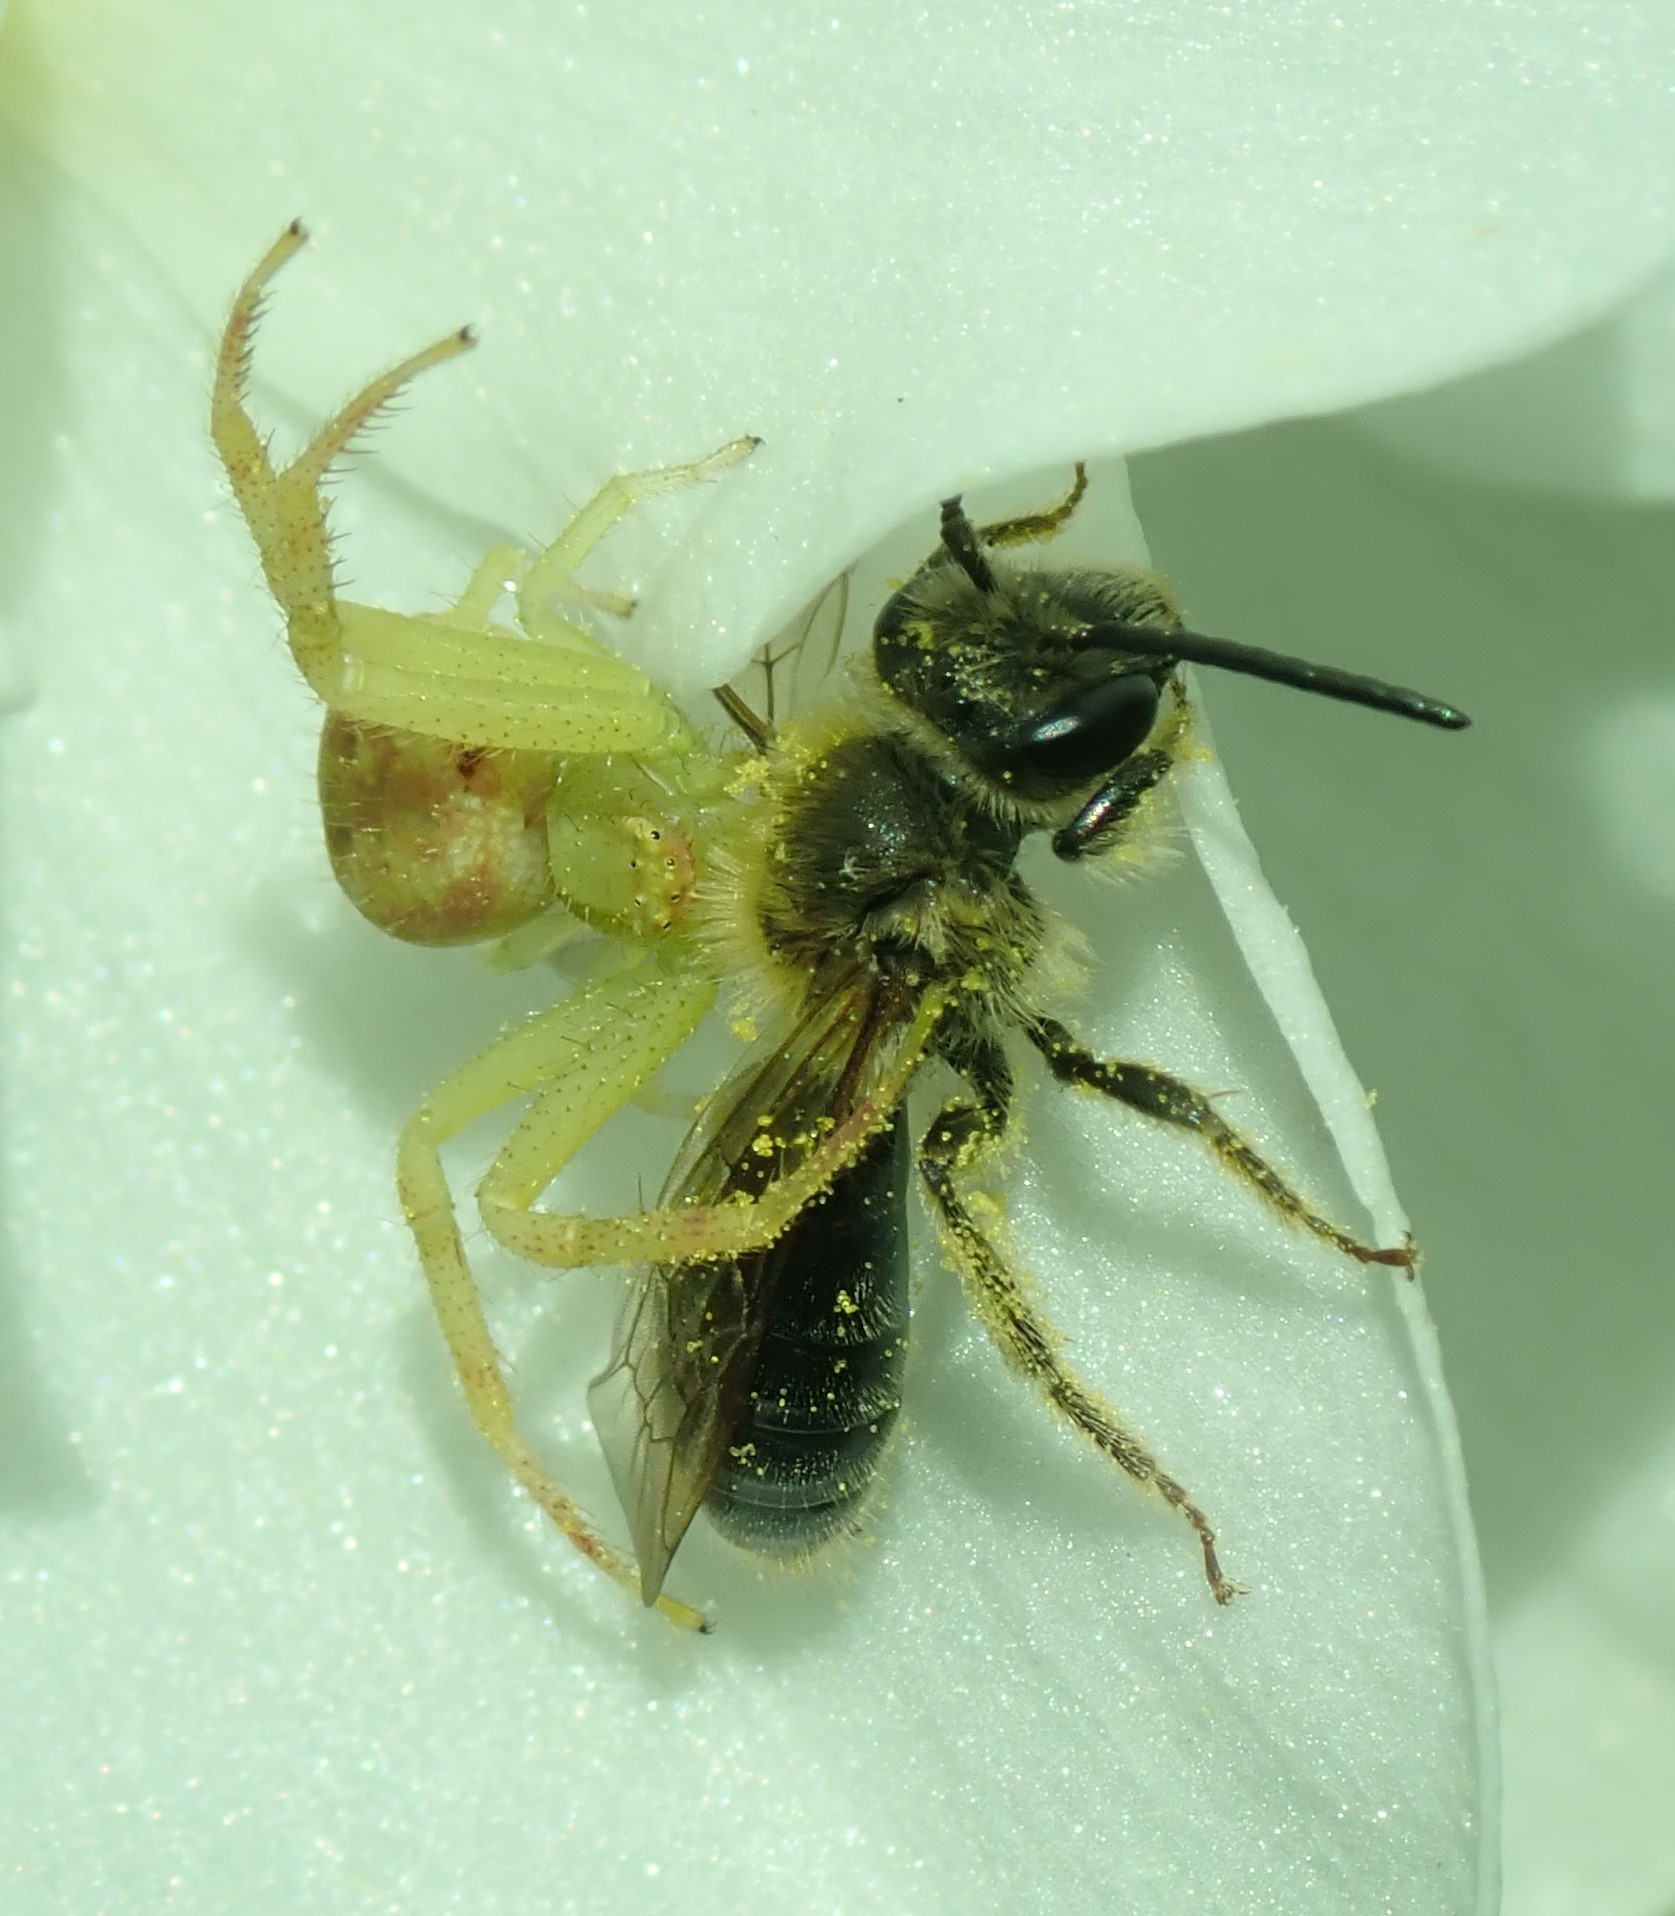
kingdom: Animalia
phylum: Arthropoda
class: Arachnida
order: Araneae
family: Thomisidae
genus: Misumena
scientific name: Misumena vatia
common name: Goldenrod crab spider
